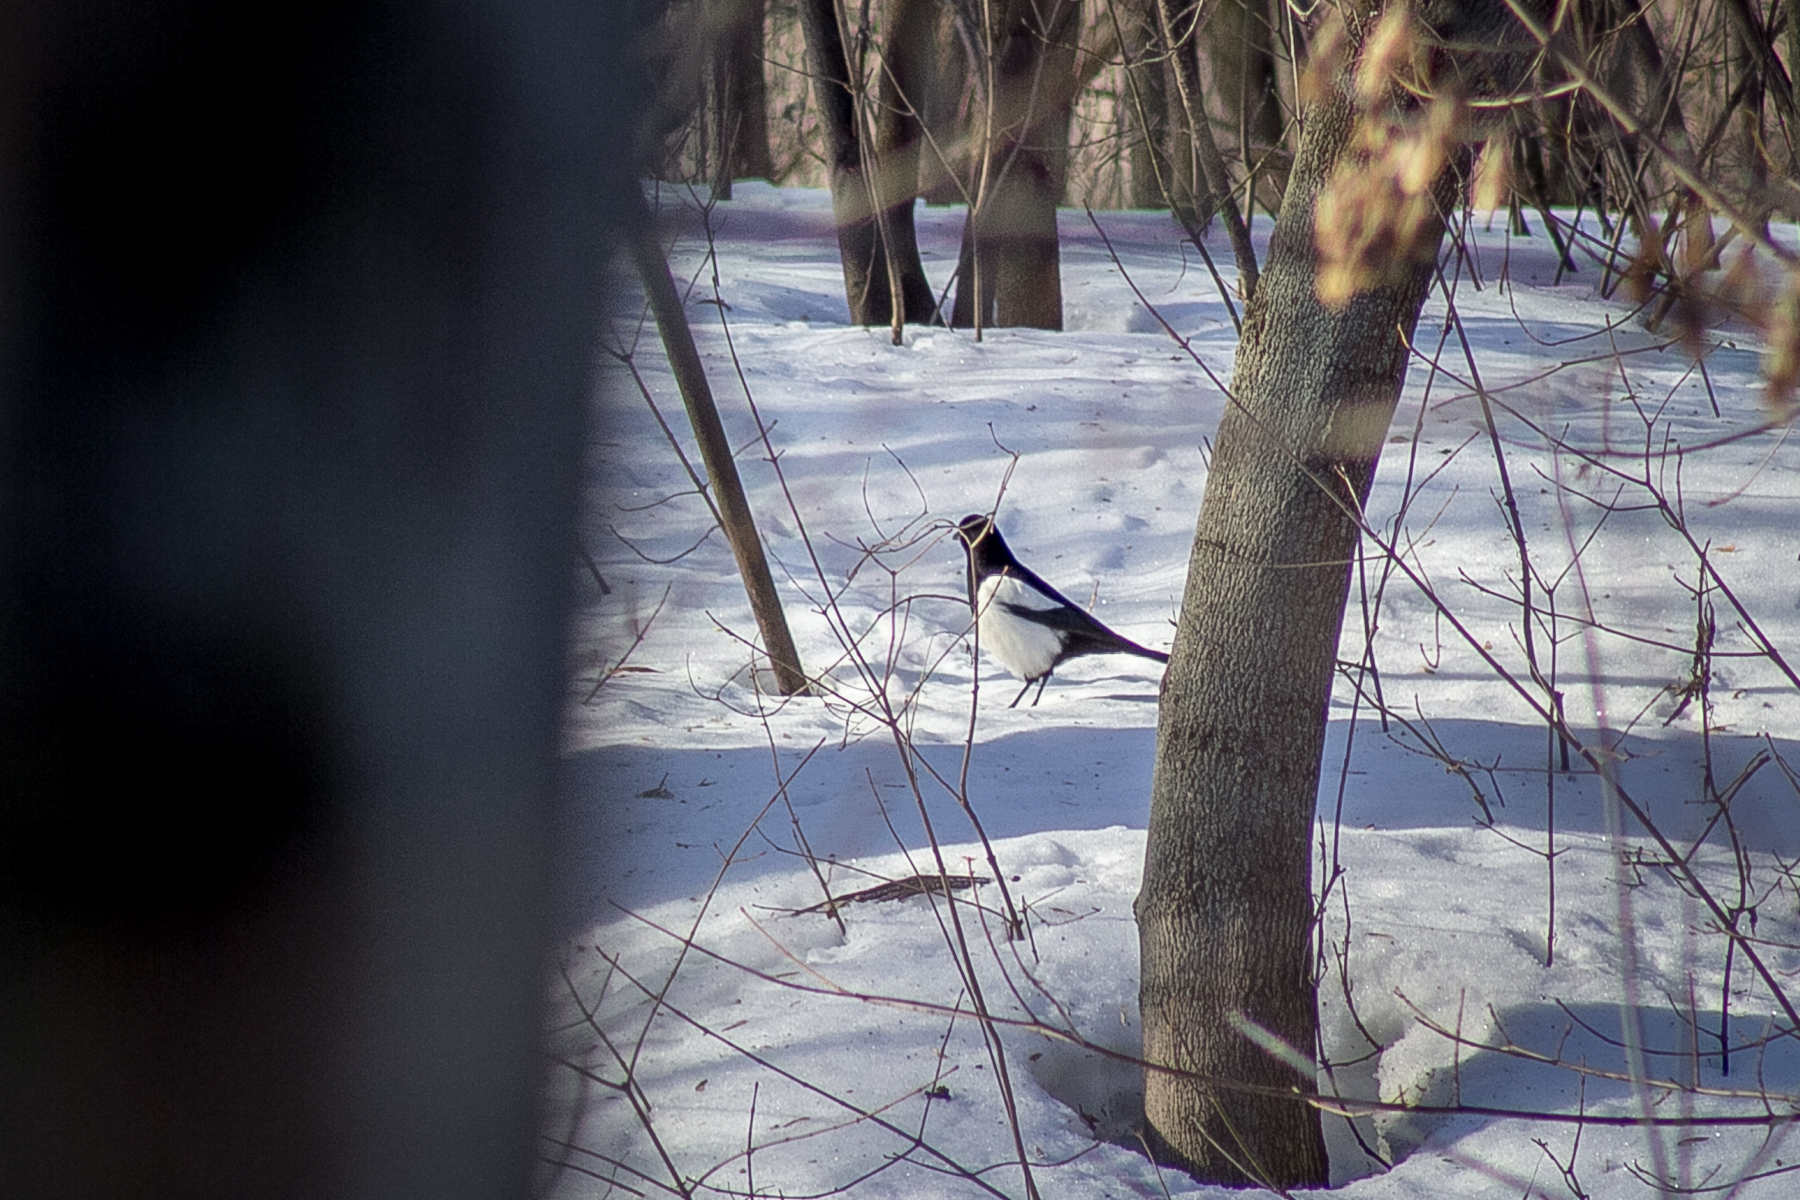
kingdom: Animalia
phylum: Chordata
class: Aves
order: Passeriformes
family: Corvidae
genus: Pica
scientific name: Pica pica
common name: Eurasian magpie
